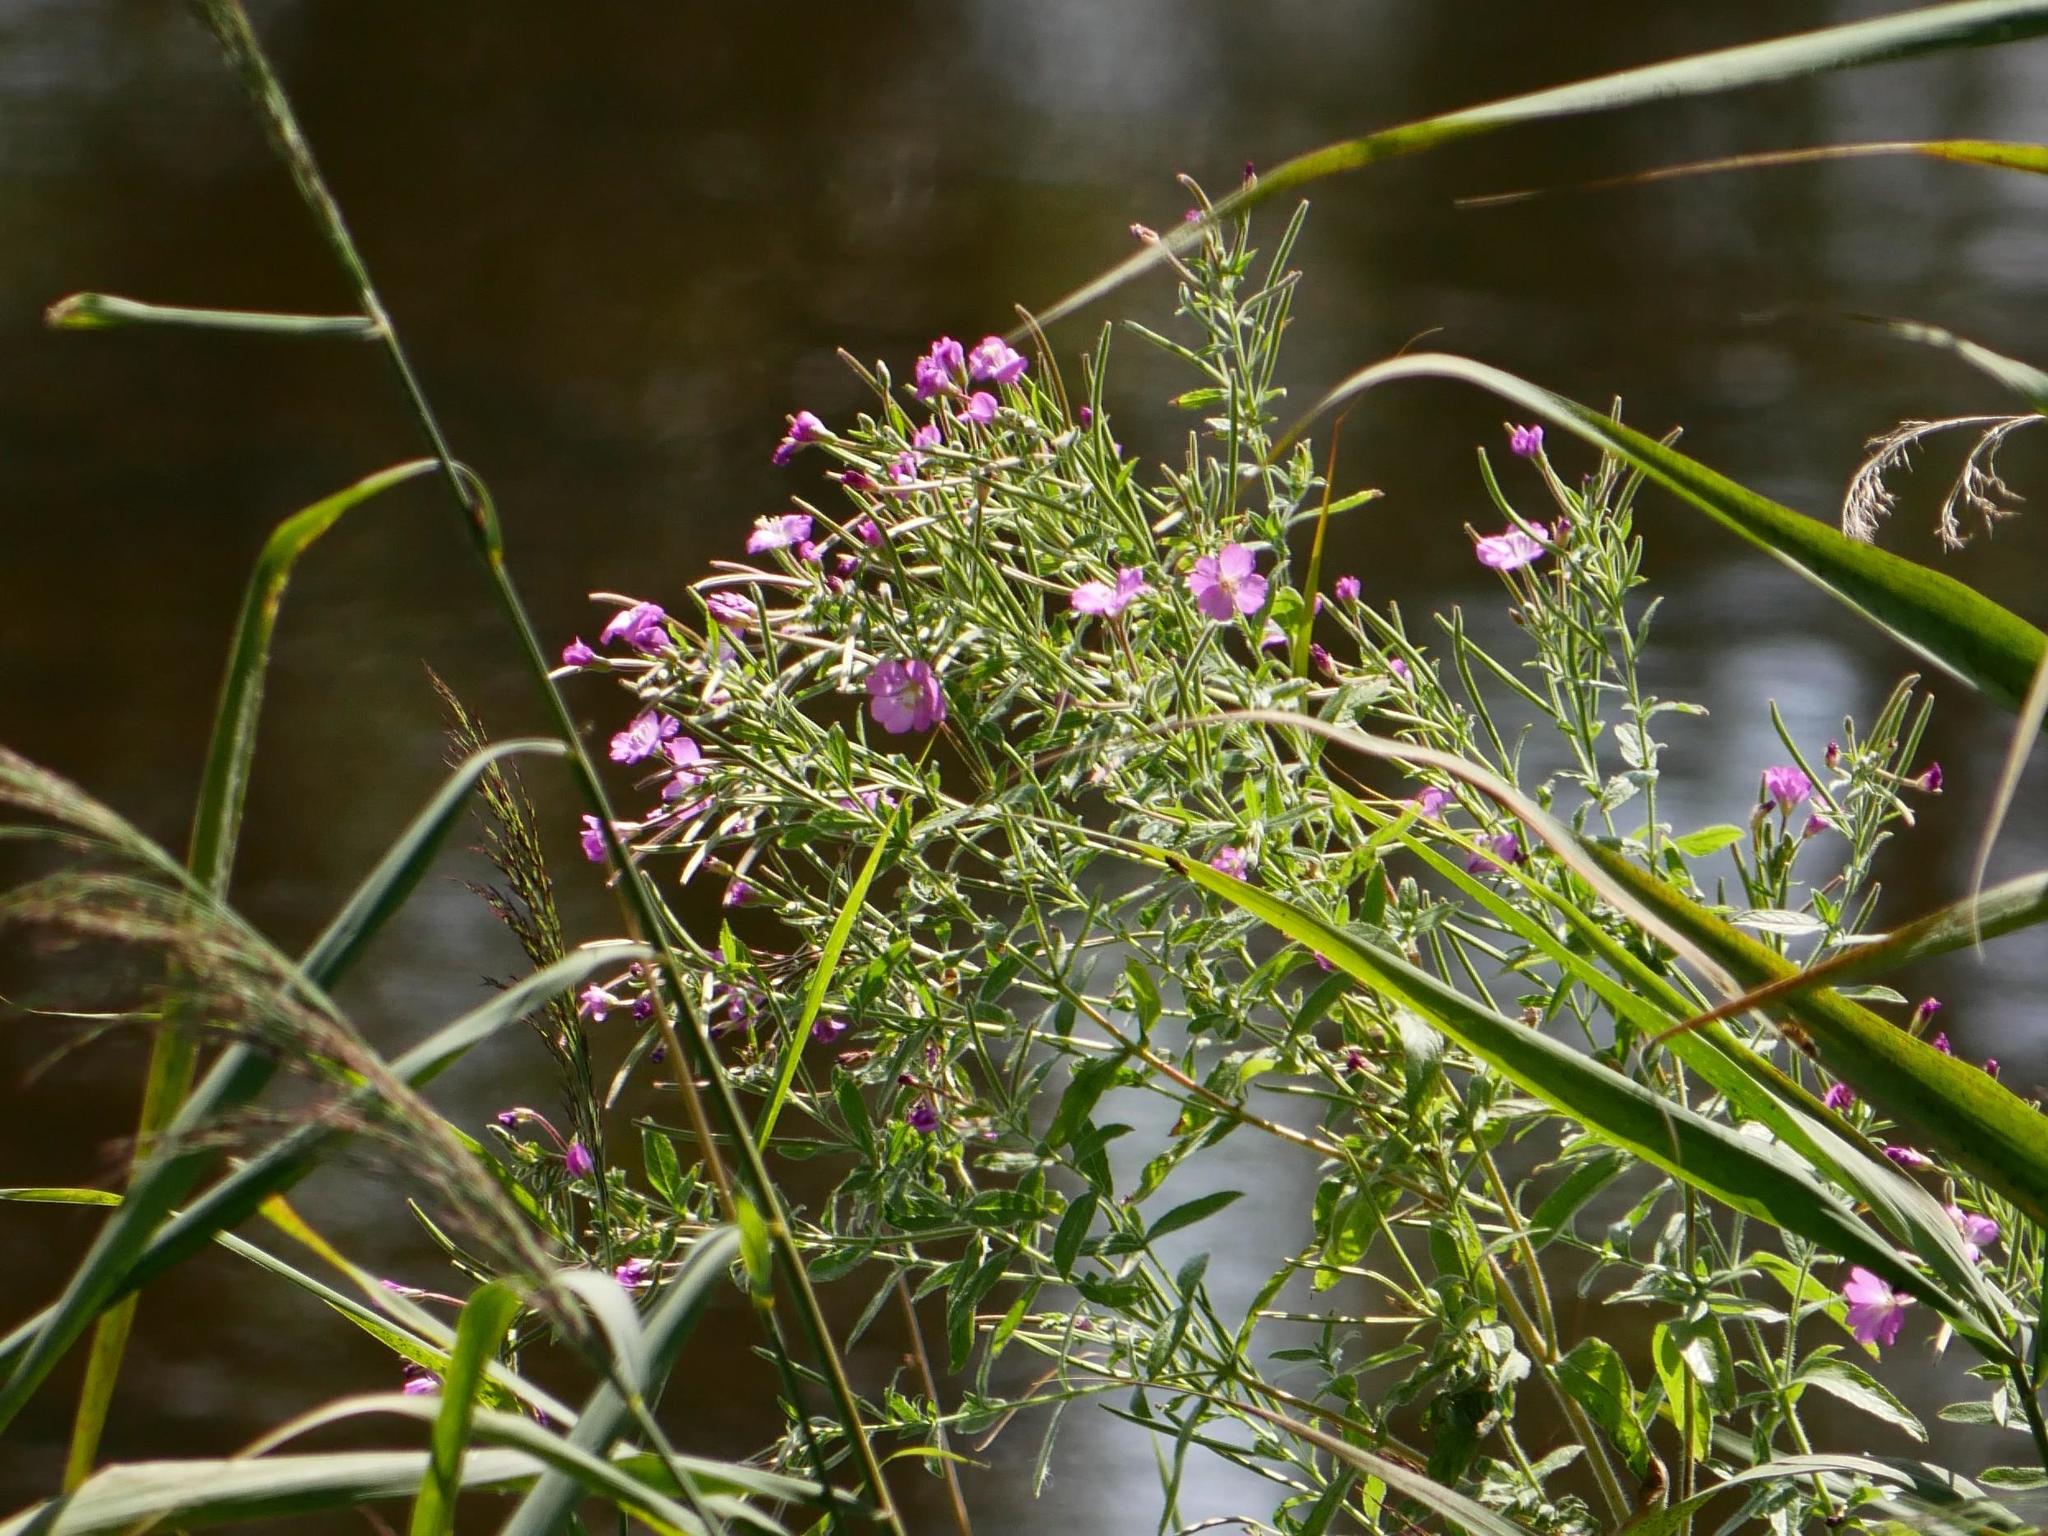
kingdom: Plantae
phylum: Tracheophyta
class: Magnoliopsida
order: Myrtales
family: Onagraceae
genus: Epilobium
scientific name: Epilobium hirsutum
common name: Great willowherb
